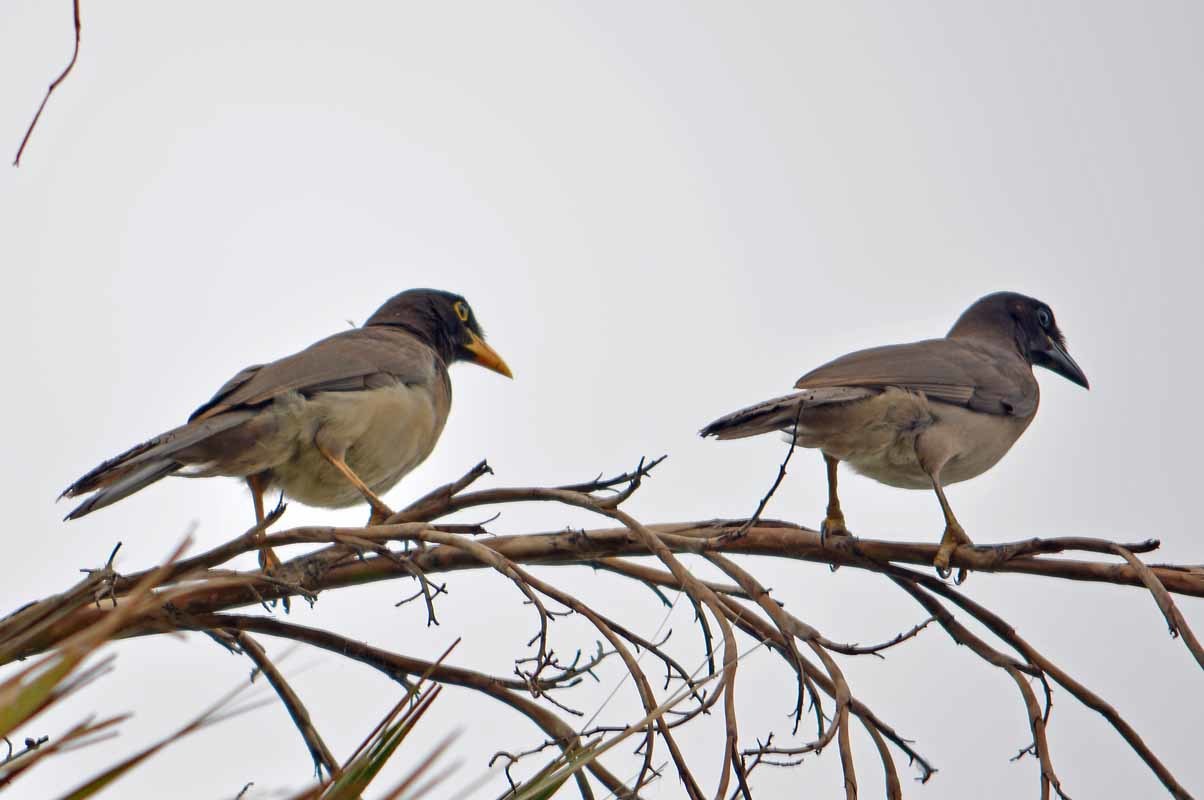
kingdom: Animalia
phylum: Chordata
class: Aves
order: Passeriformes
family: Corvidae
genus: Psilorhinus
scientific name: Psilorhinus morio
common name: Brown jay
